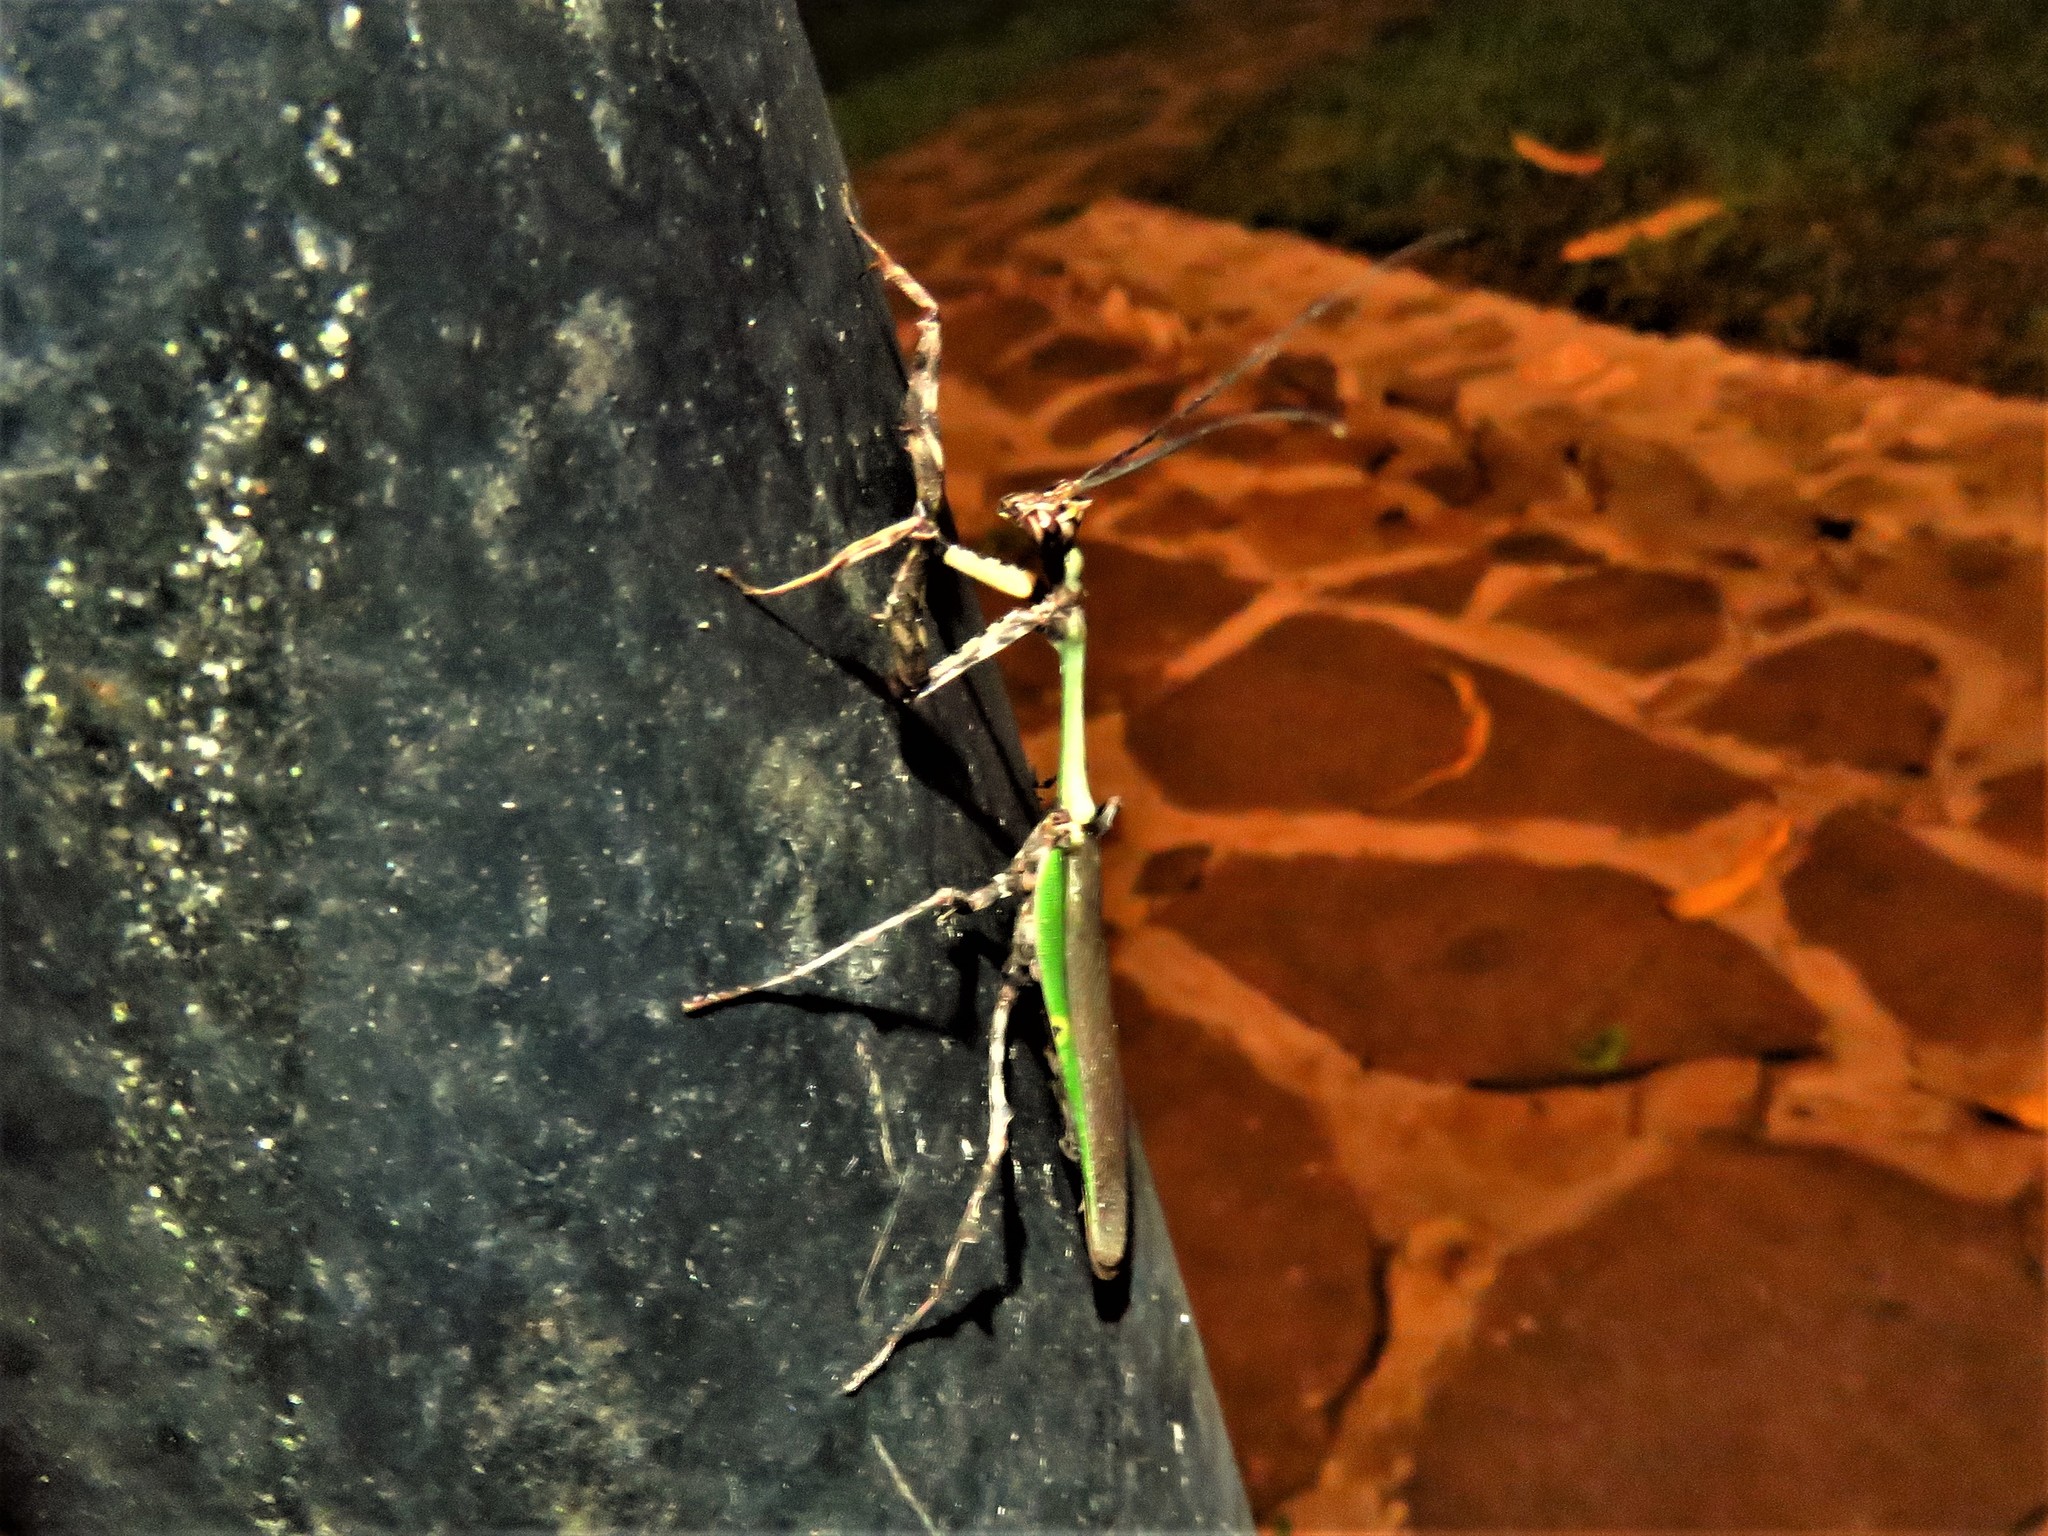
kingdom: Animalia
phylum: Arthropoda
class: Insecta
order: Mantodea
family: Mantidae
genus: Vates
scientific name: Vates pectinata
